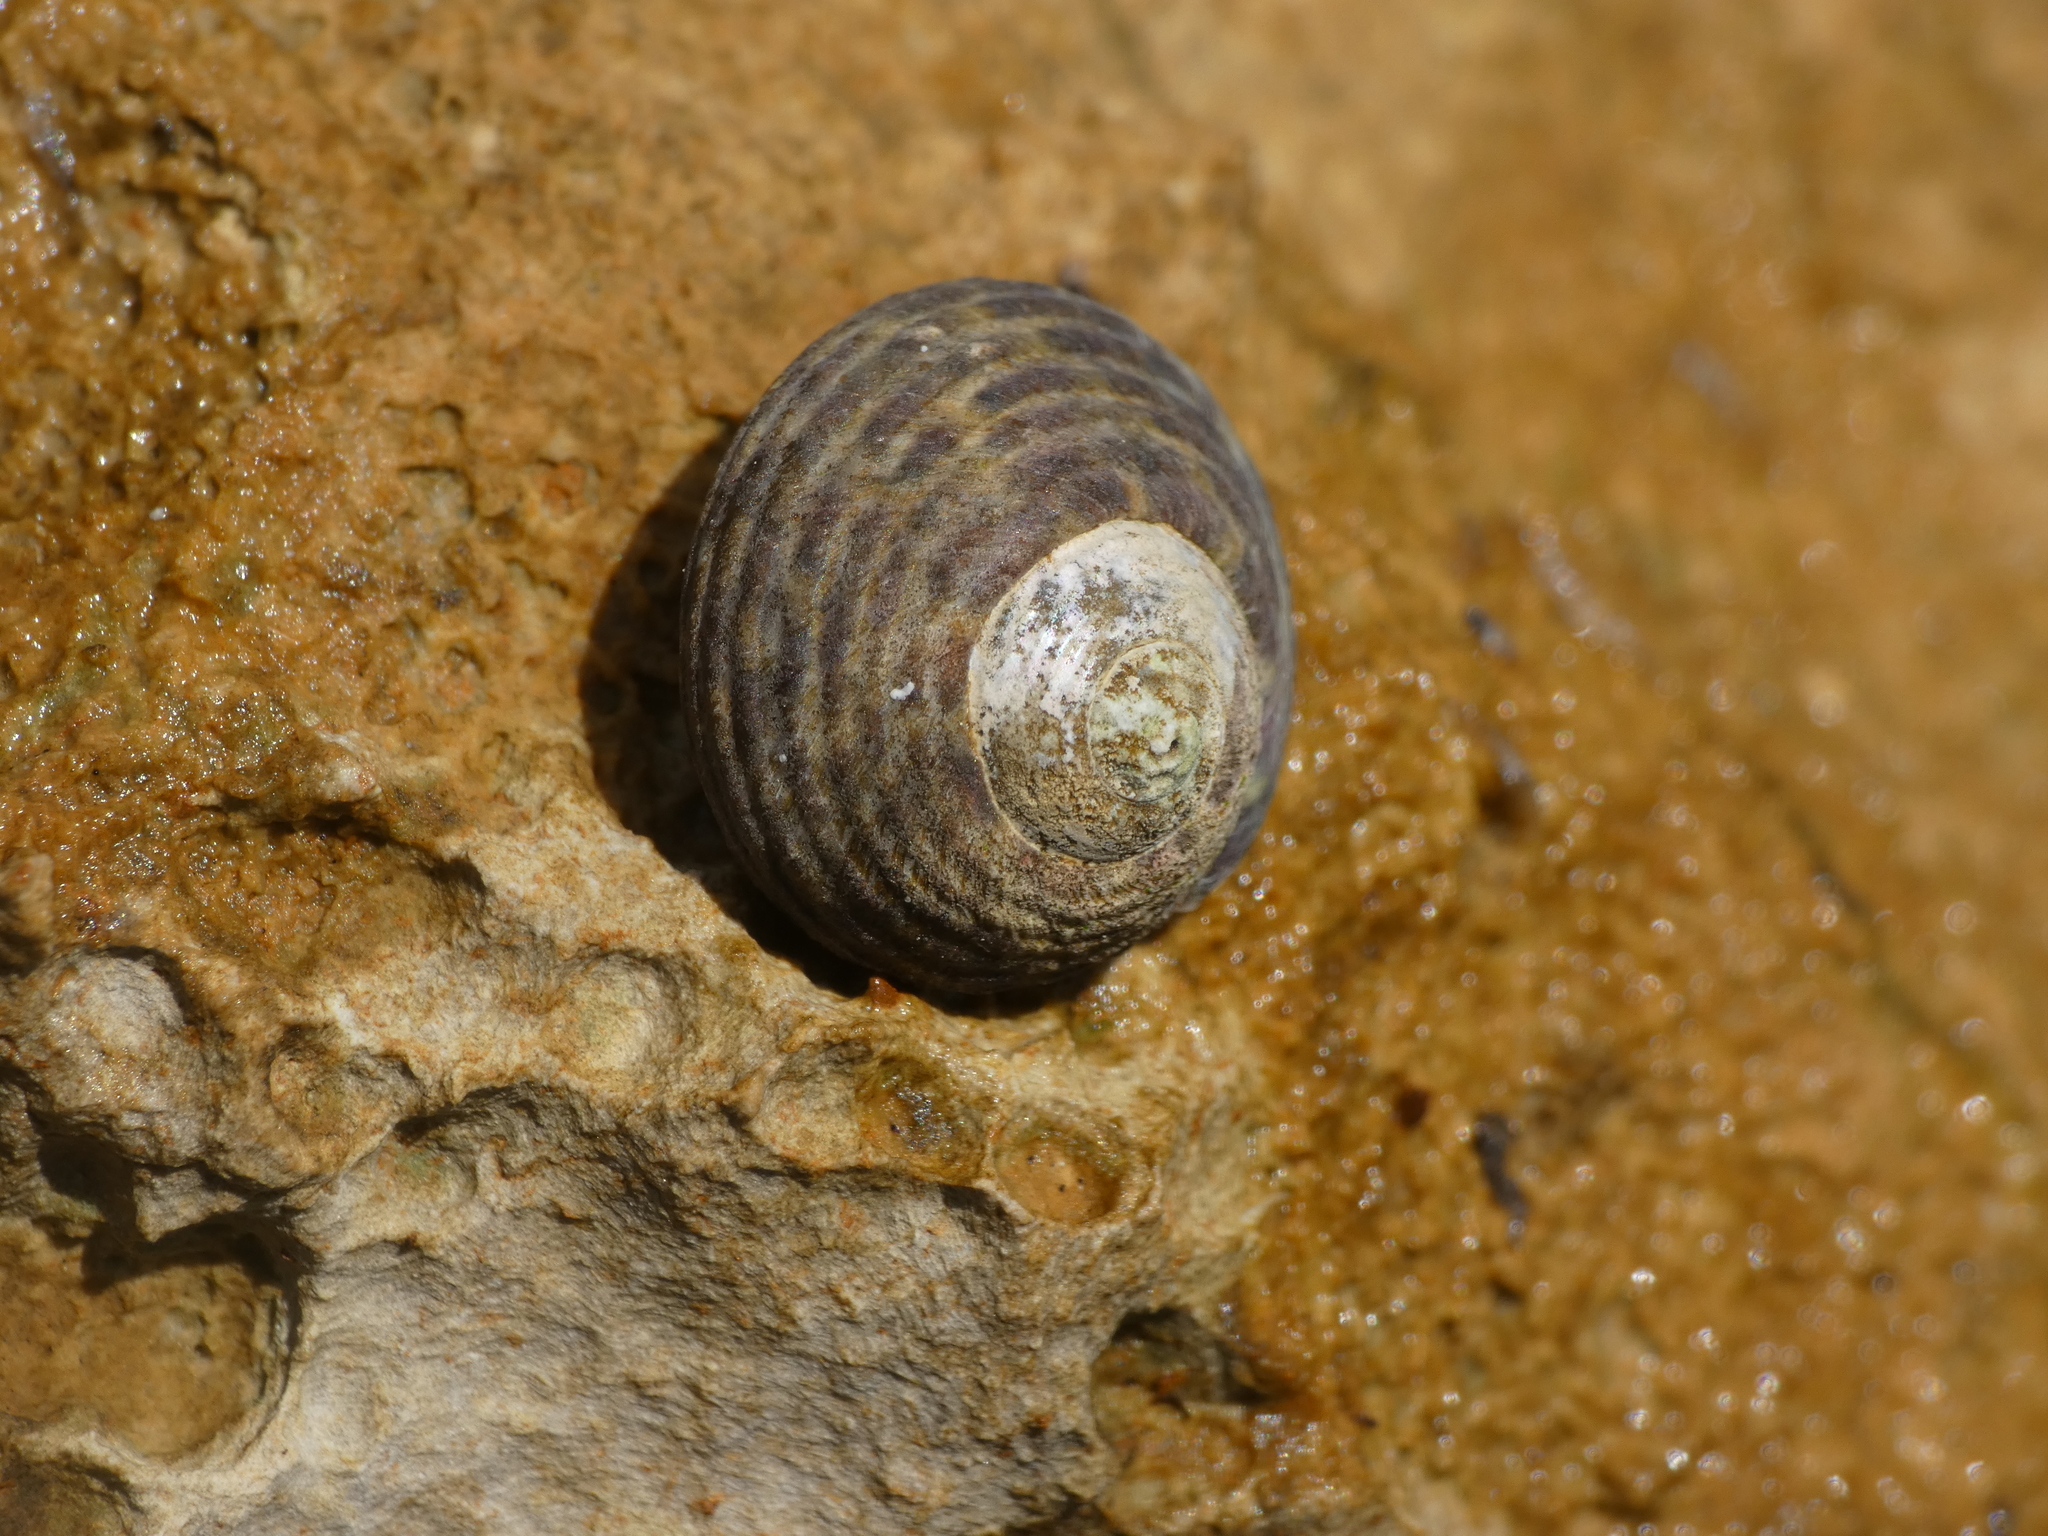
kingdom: Animalia
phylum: Mollusca
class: Gastropoda
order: Trochida
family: Trochidae
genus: Phorcus
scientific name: Phorcus turbinatus
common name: Turbinate monodont
